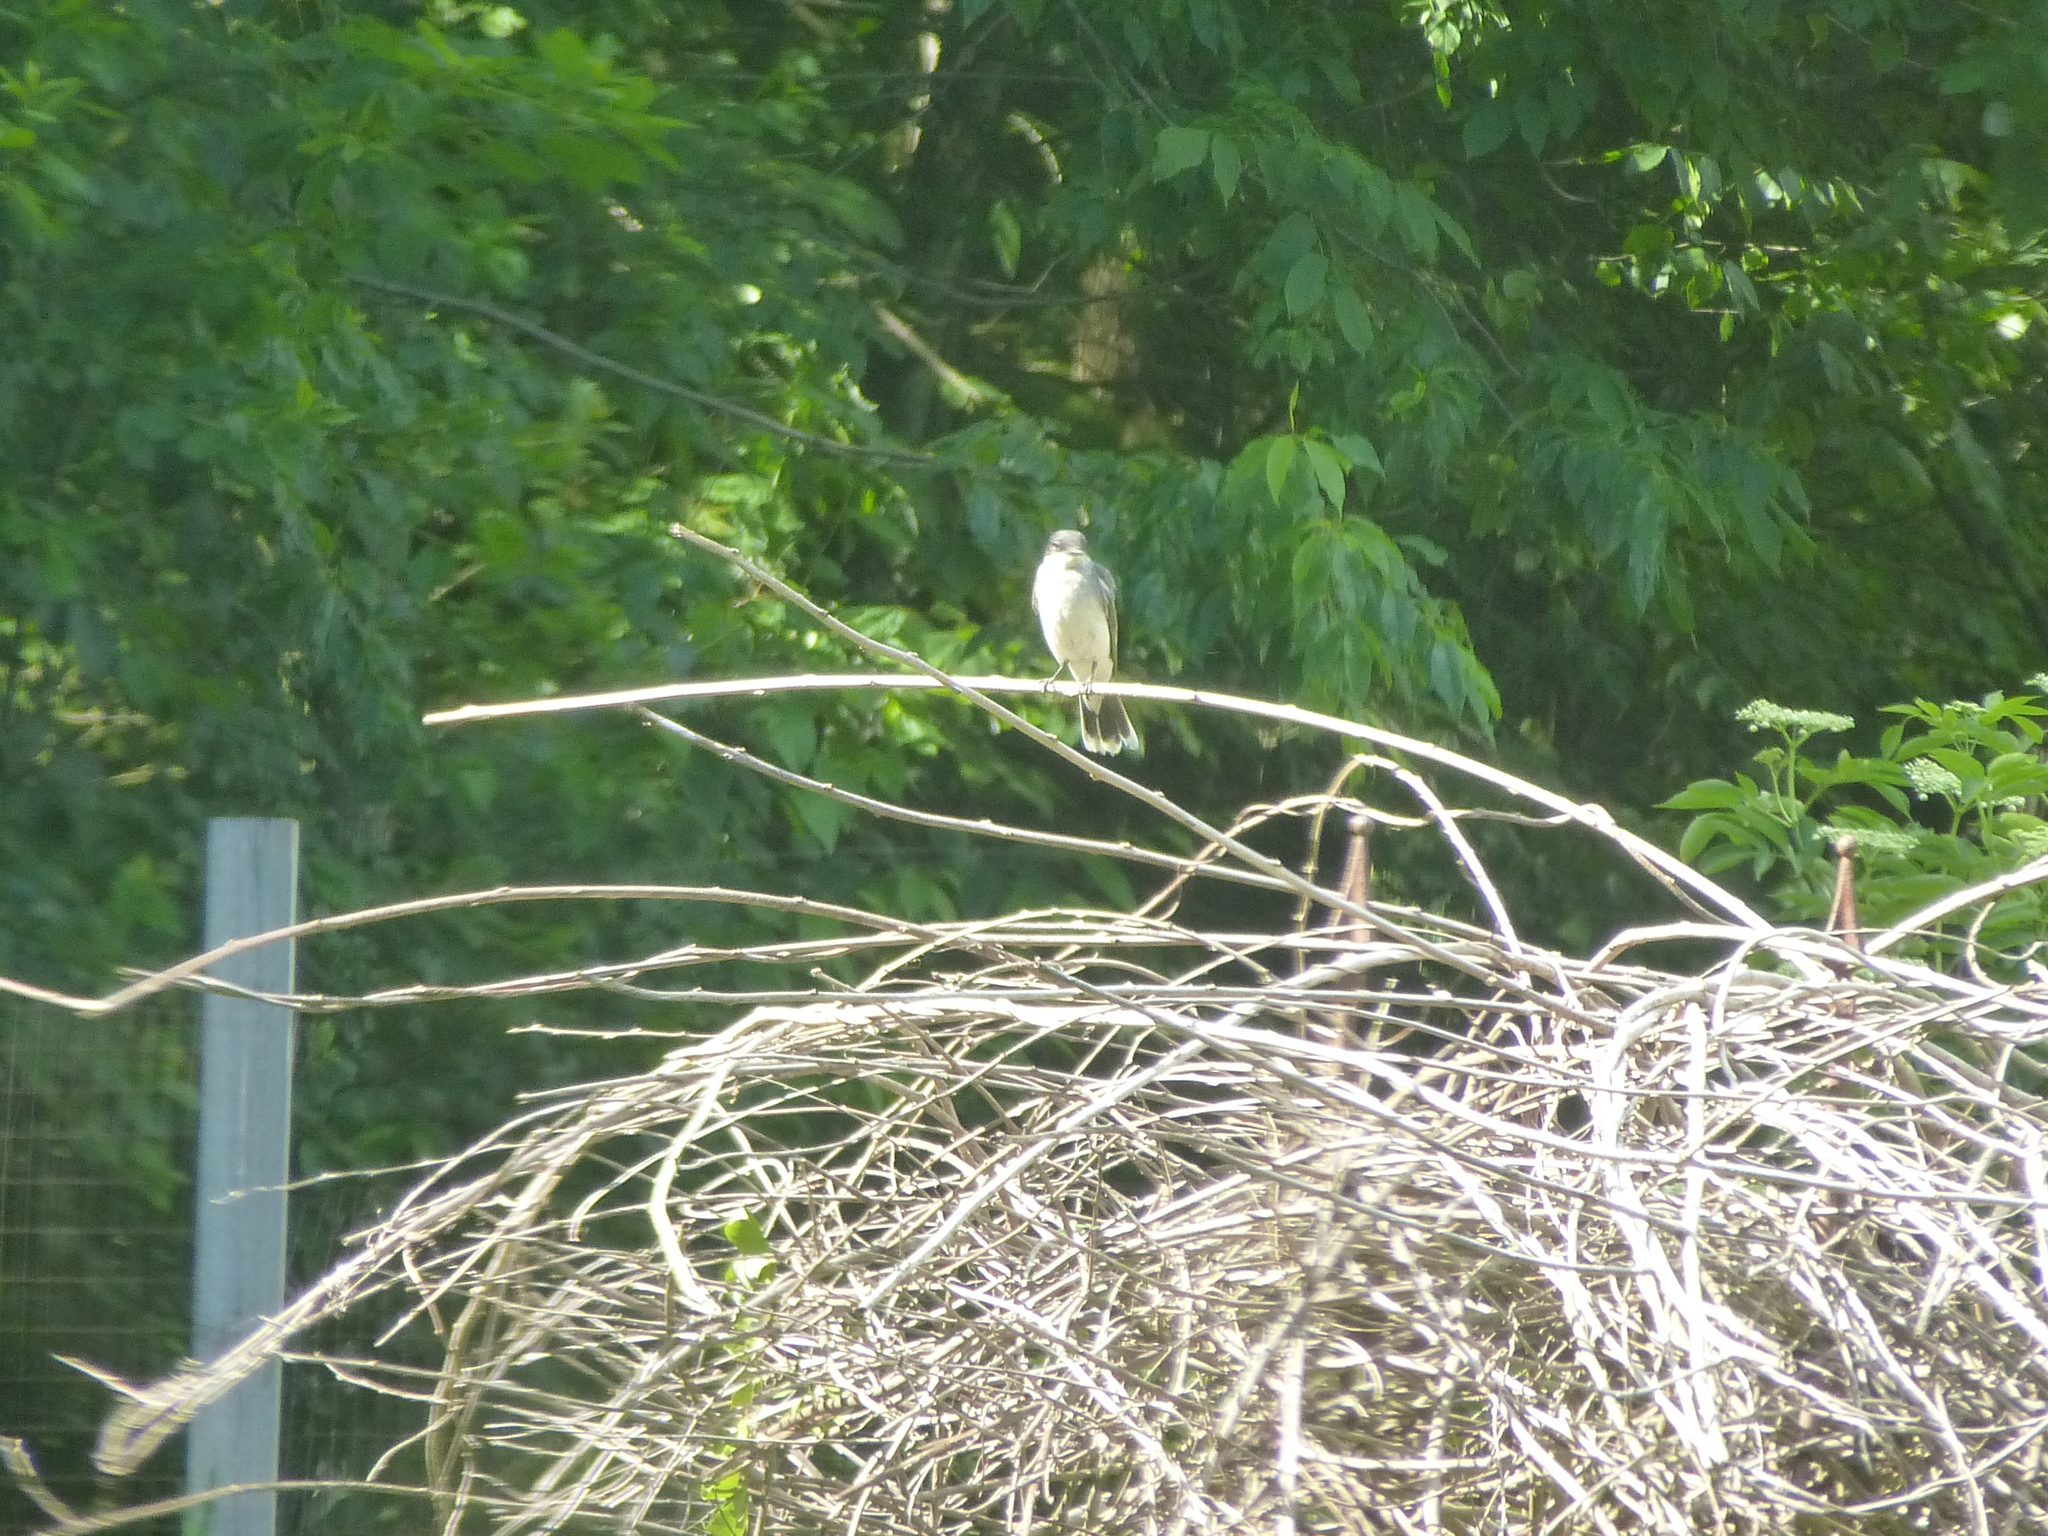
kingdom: Animalia
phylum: Chordata
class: Aves
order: Passeriformes
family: Tyrannidae
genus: Tyrannus
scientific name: Tyrannus tyrannus
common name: Eastern kingbird
